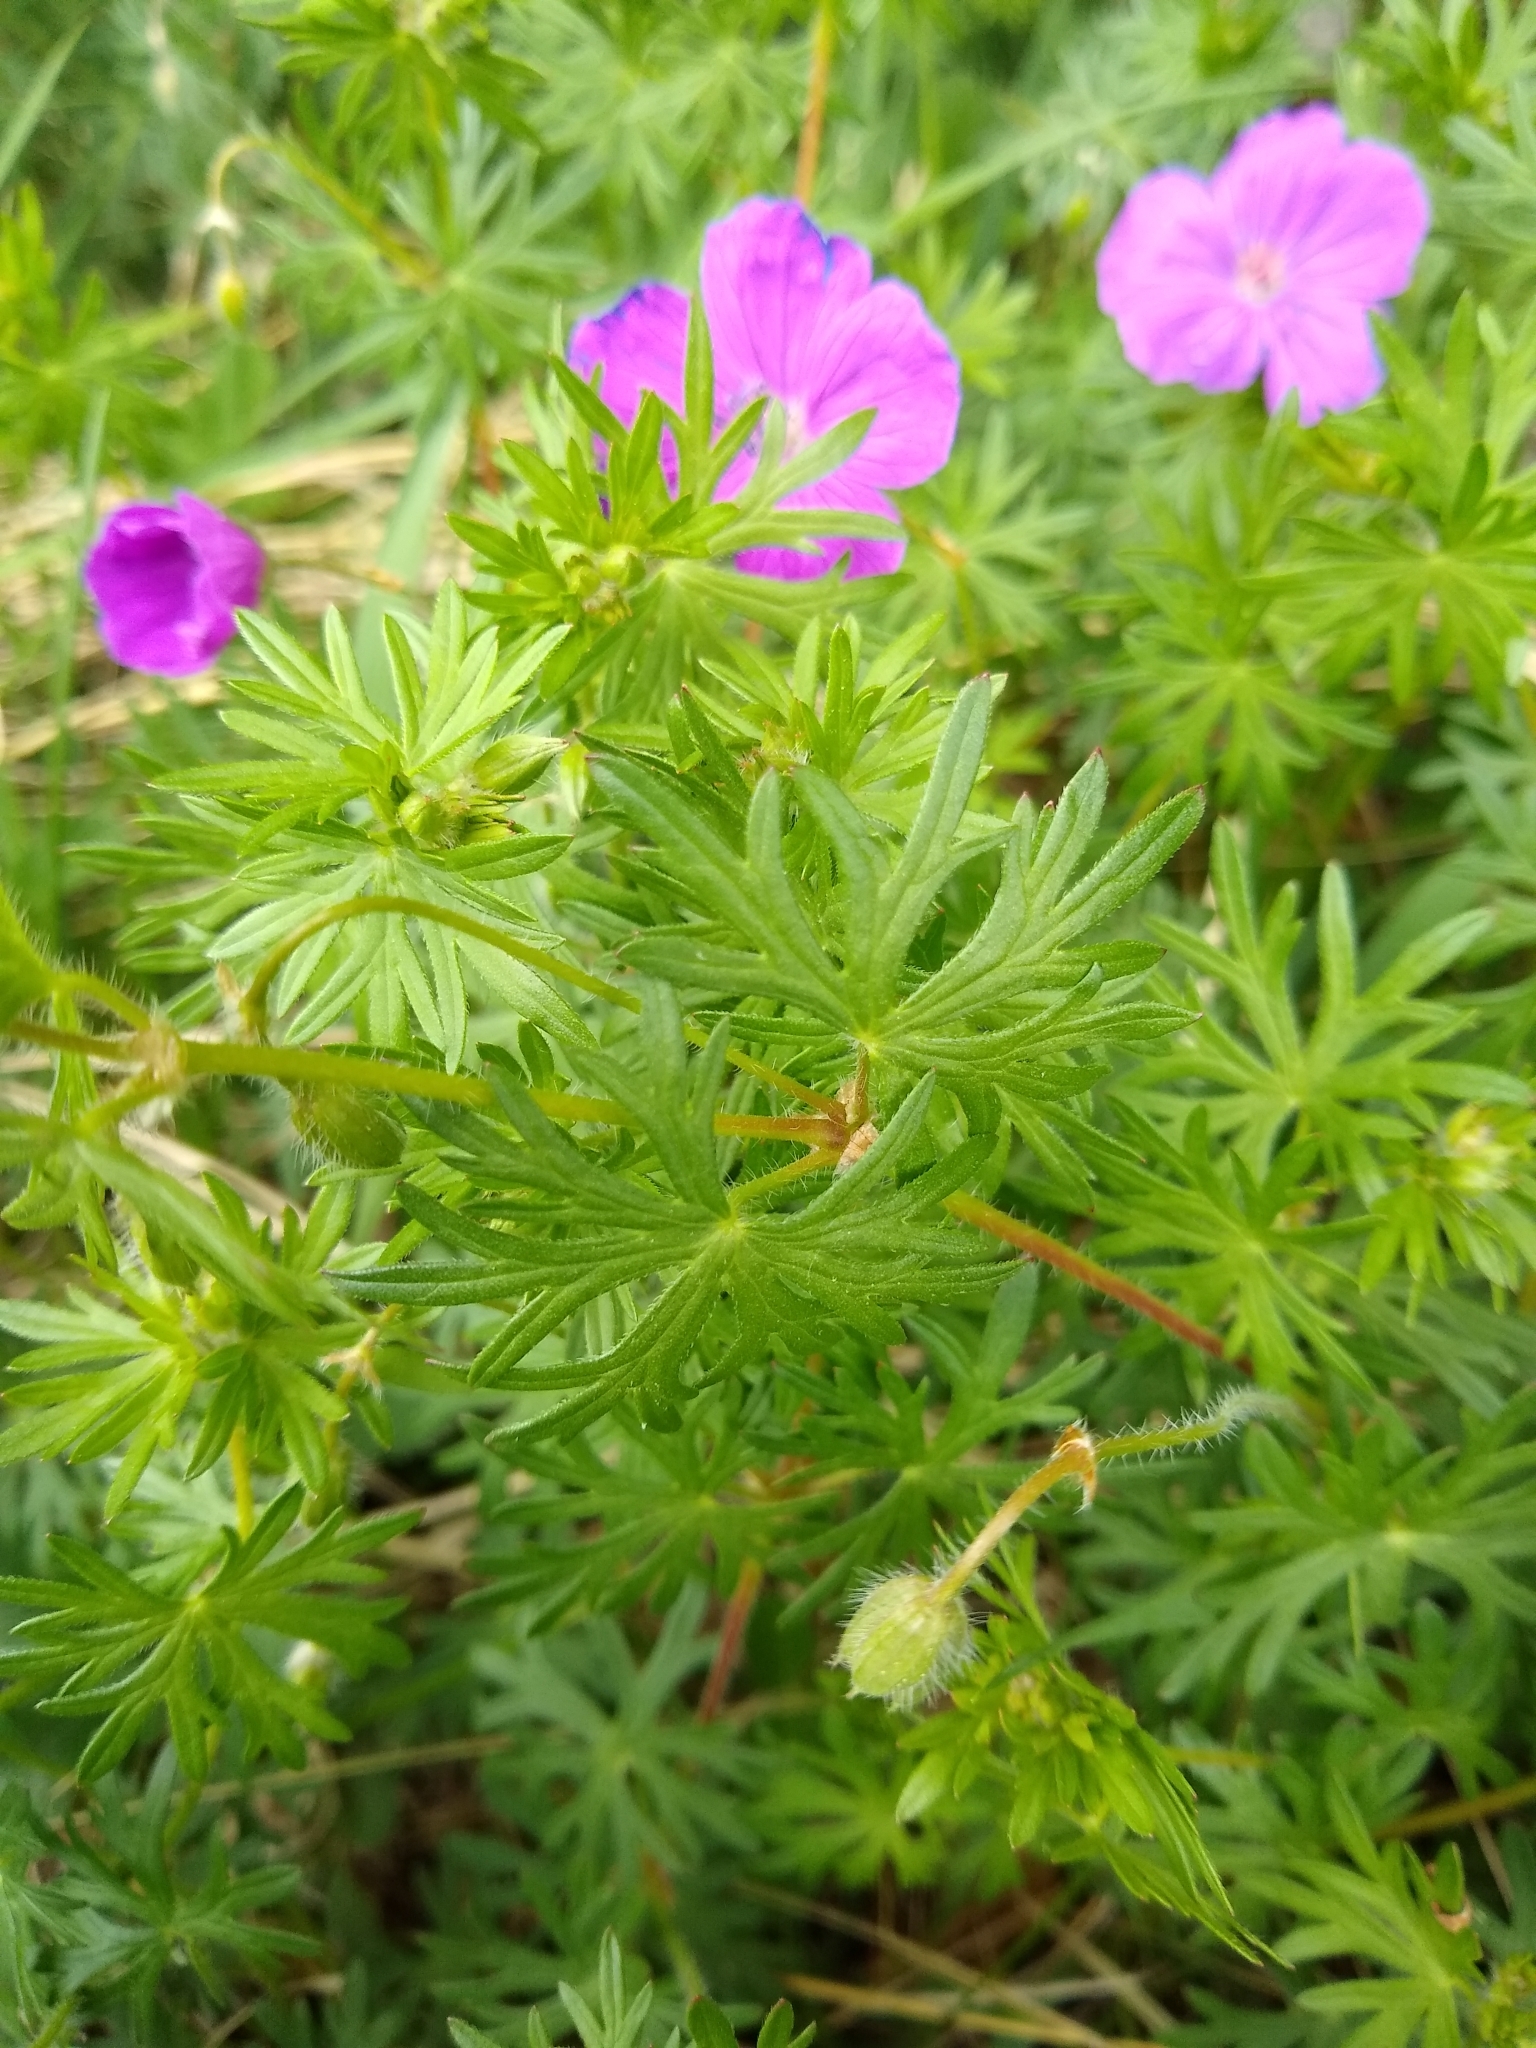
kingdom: Plantae
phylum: Tracheophyta
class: Magnoliopsida
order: Geraniales
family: Geraniaceae
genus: Geranium
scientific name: Geranium sanguineum
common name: Bloody crane's-bill
